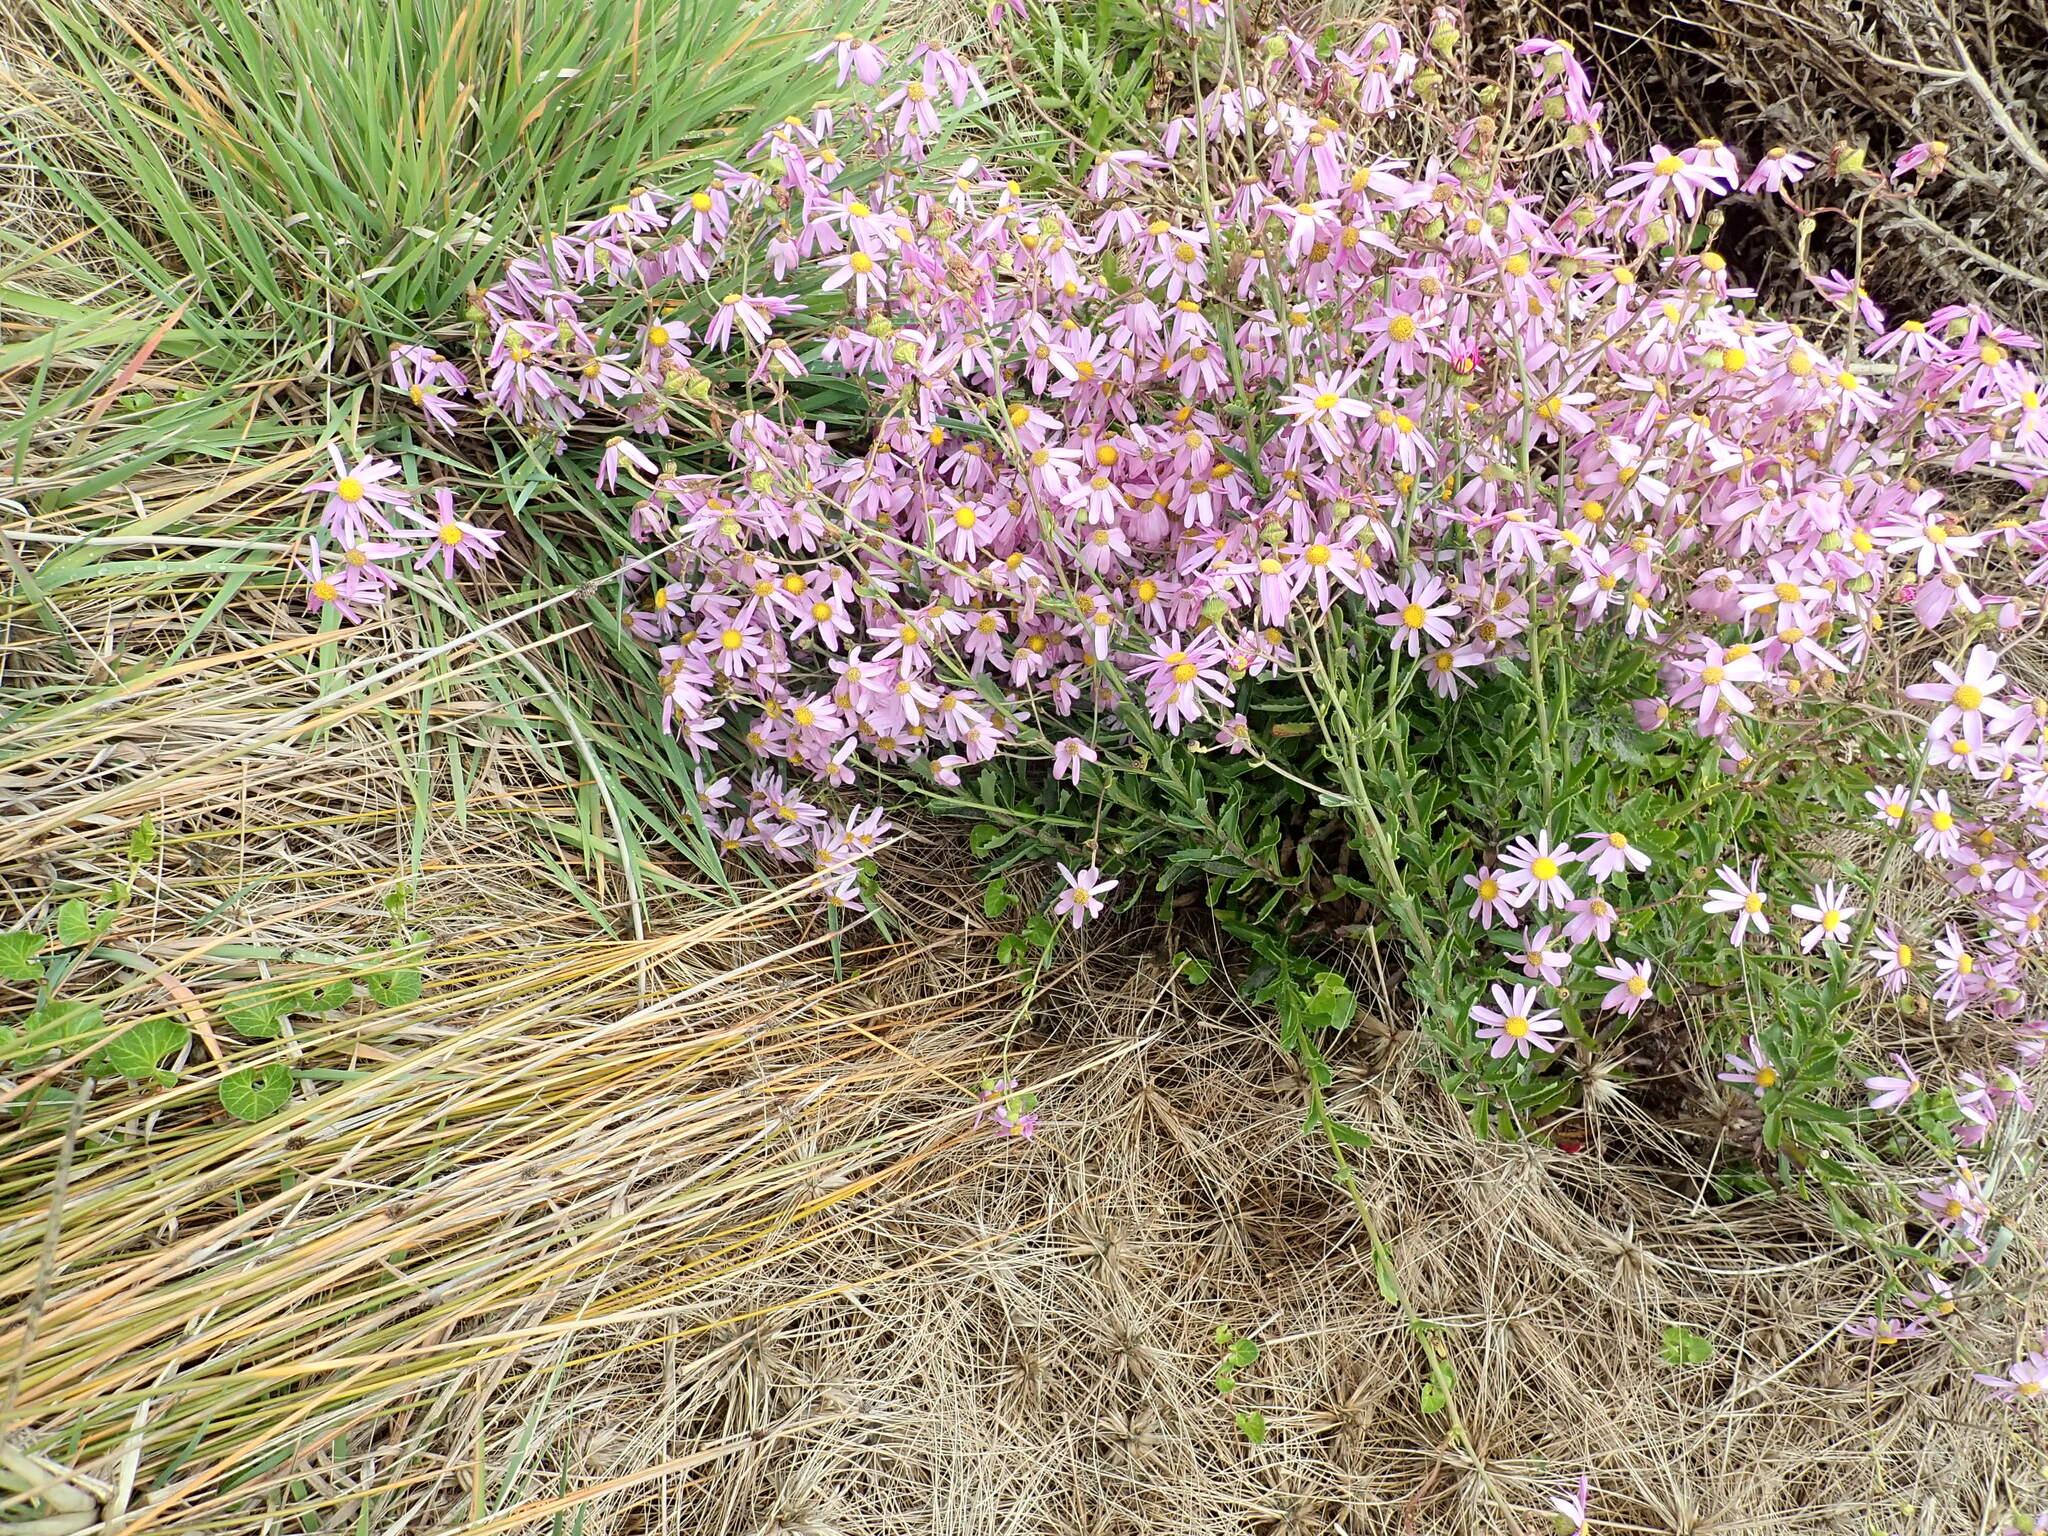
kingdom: Plantae
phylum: Tracheophyta
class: Magnoliopsida
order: Asterales
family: Asteraceae
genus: Senecio
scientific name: Senecio glastifolius
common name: Woad-leaved ragwort
